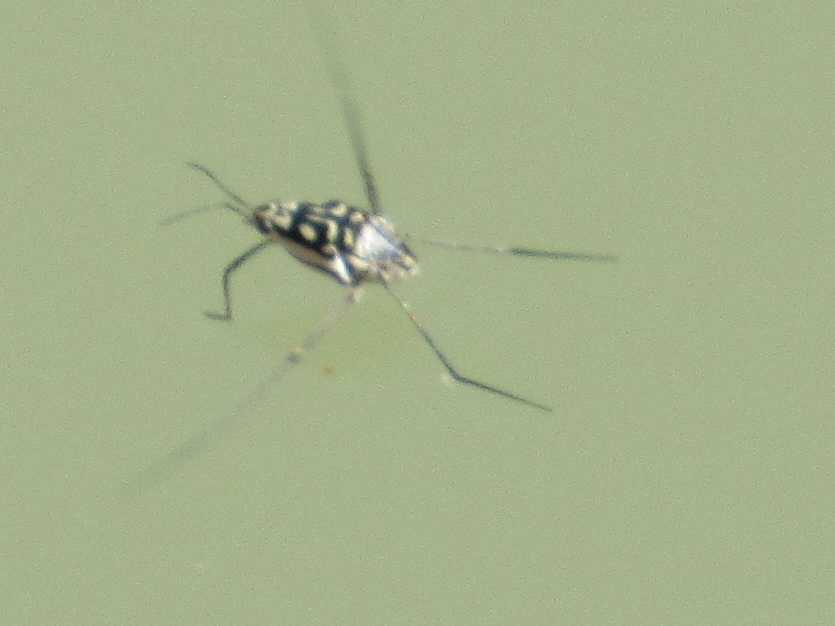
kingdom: Animalia
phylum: Arthropoda
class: Insecta
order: Hemiptera
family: Gerridae
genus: Trepobates
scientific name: Trepobates
